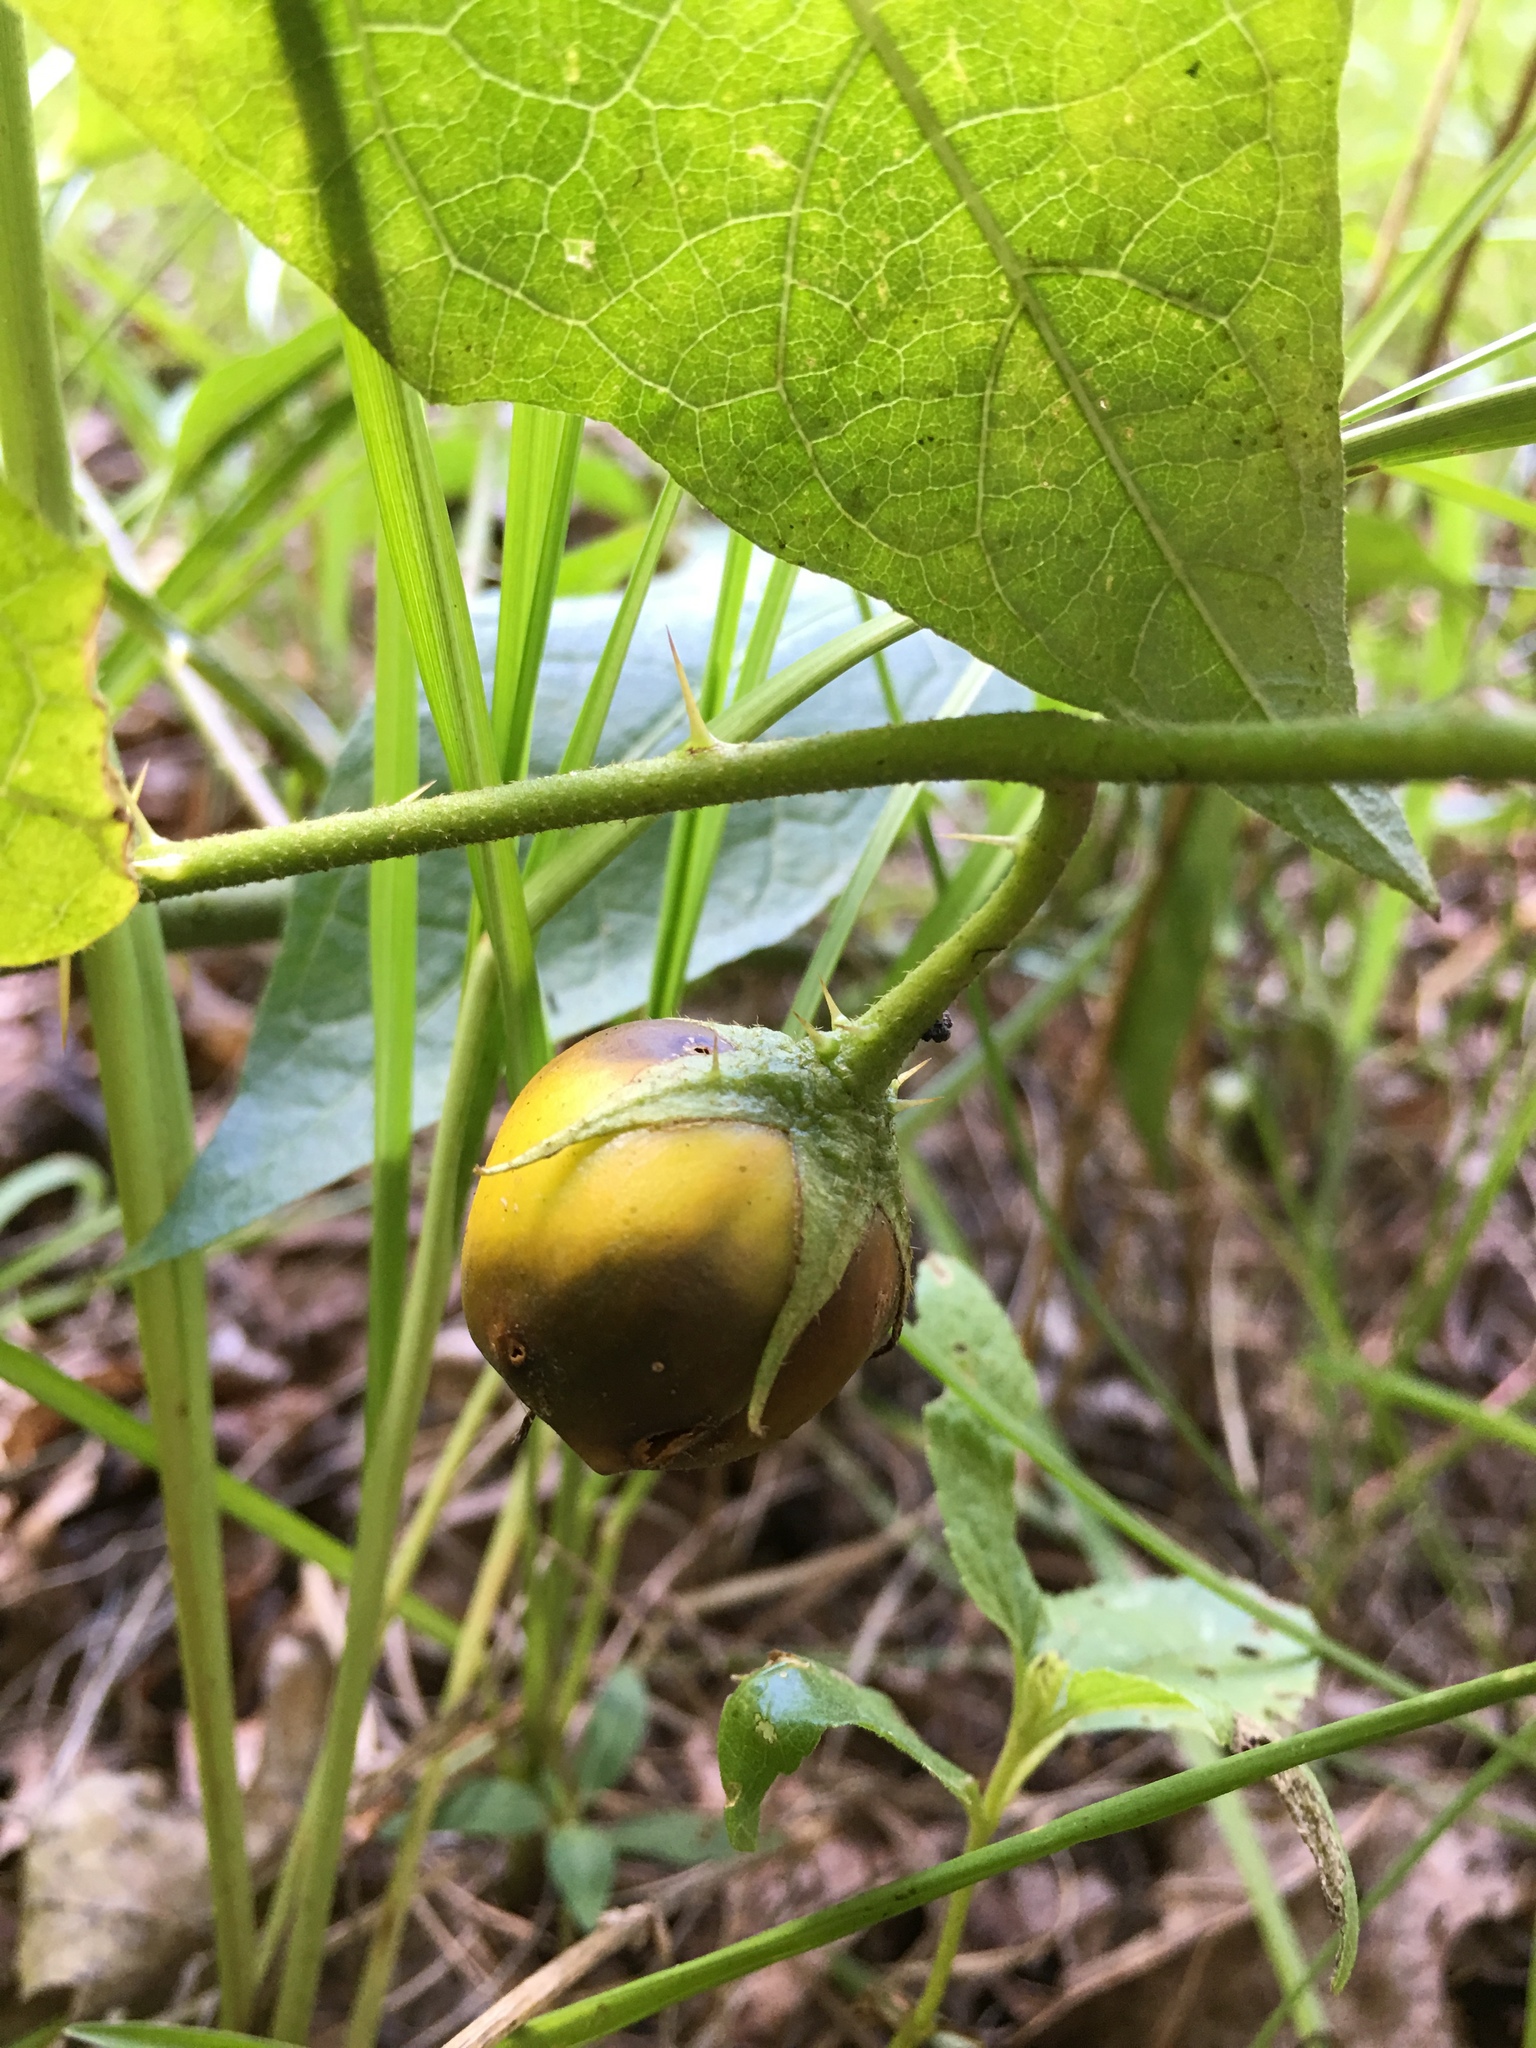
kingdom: Plantae
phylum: Tracheophyta
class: Magnoliopsida
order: Solanales
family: Solanaceae
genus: Solanum
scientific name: Solanum carolinense
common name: Horse-nettle
